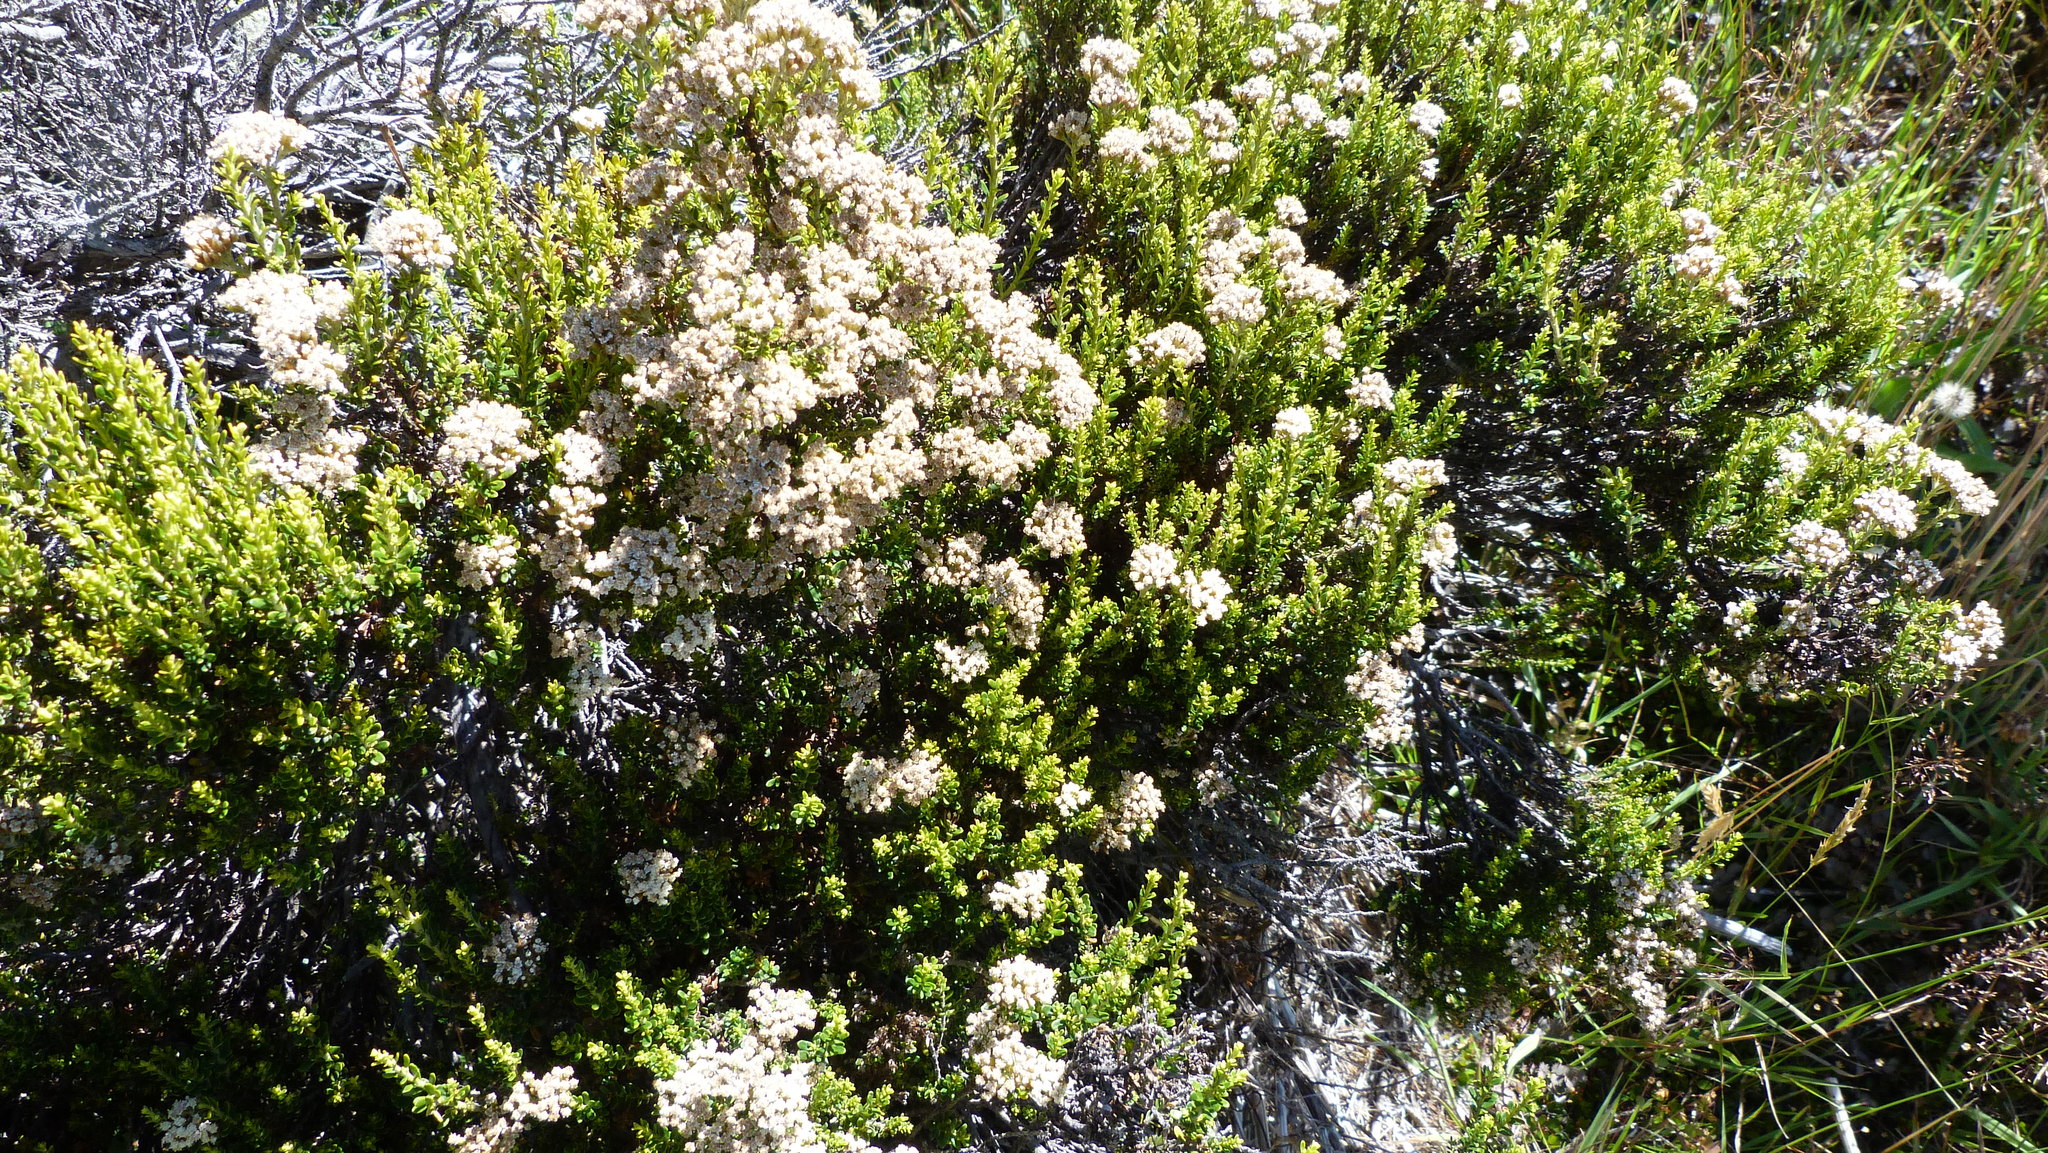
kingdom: Plantae
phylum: Tracheophyta
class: Magnoliopsida
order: Asterales
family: Asteraceae
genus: Ozothamnus
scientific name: Ozothamnus leptophyllus
